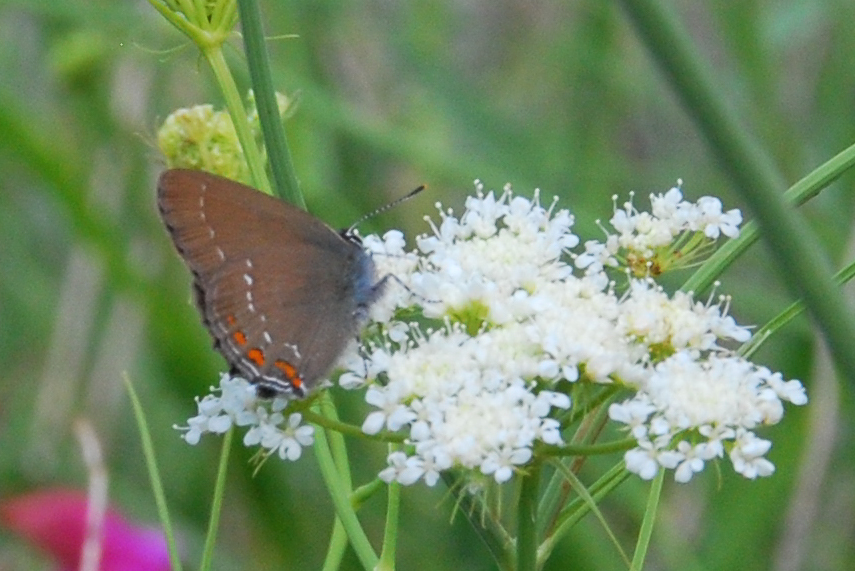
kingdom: Animalia
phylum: Arthropoda
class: Insecta
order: Lepidoptera
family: Lycaenidae
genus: Nordmannia
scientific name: Nordmannia ilicis
